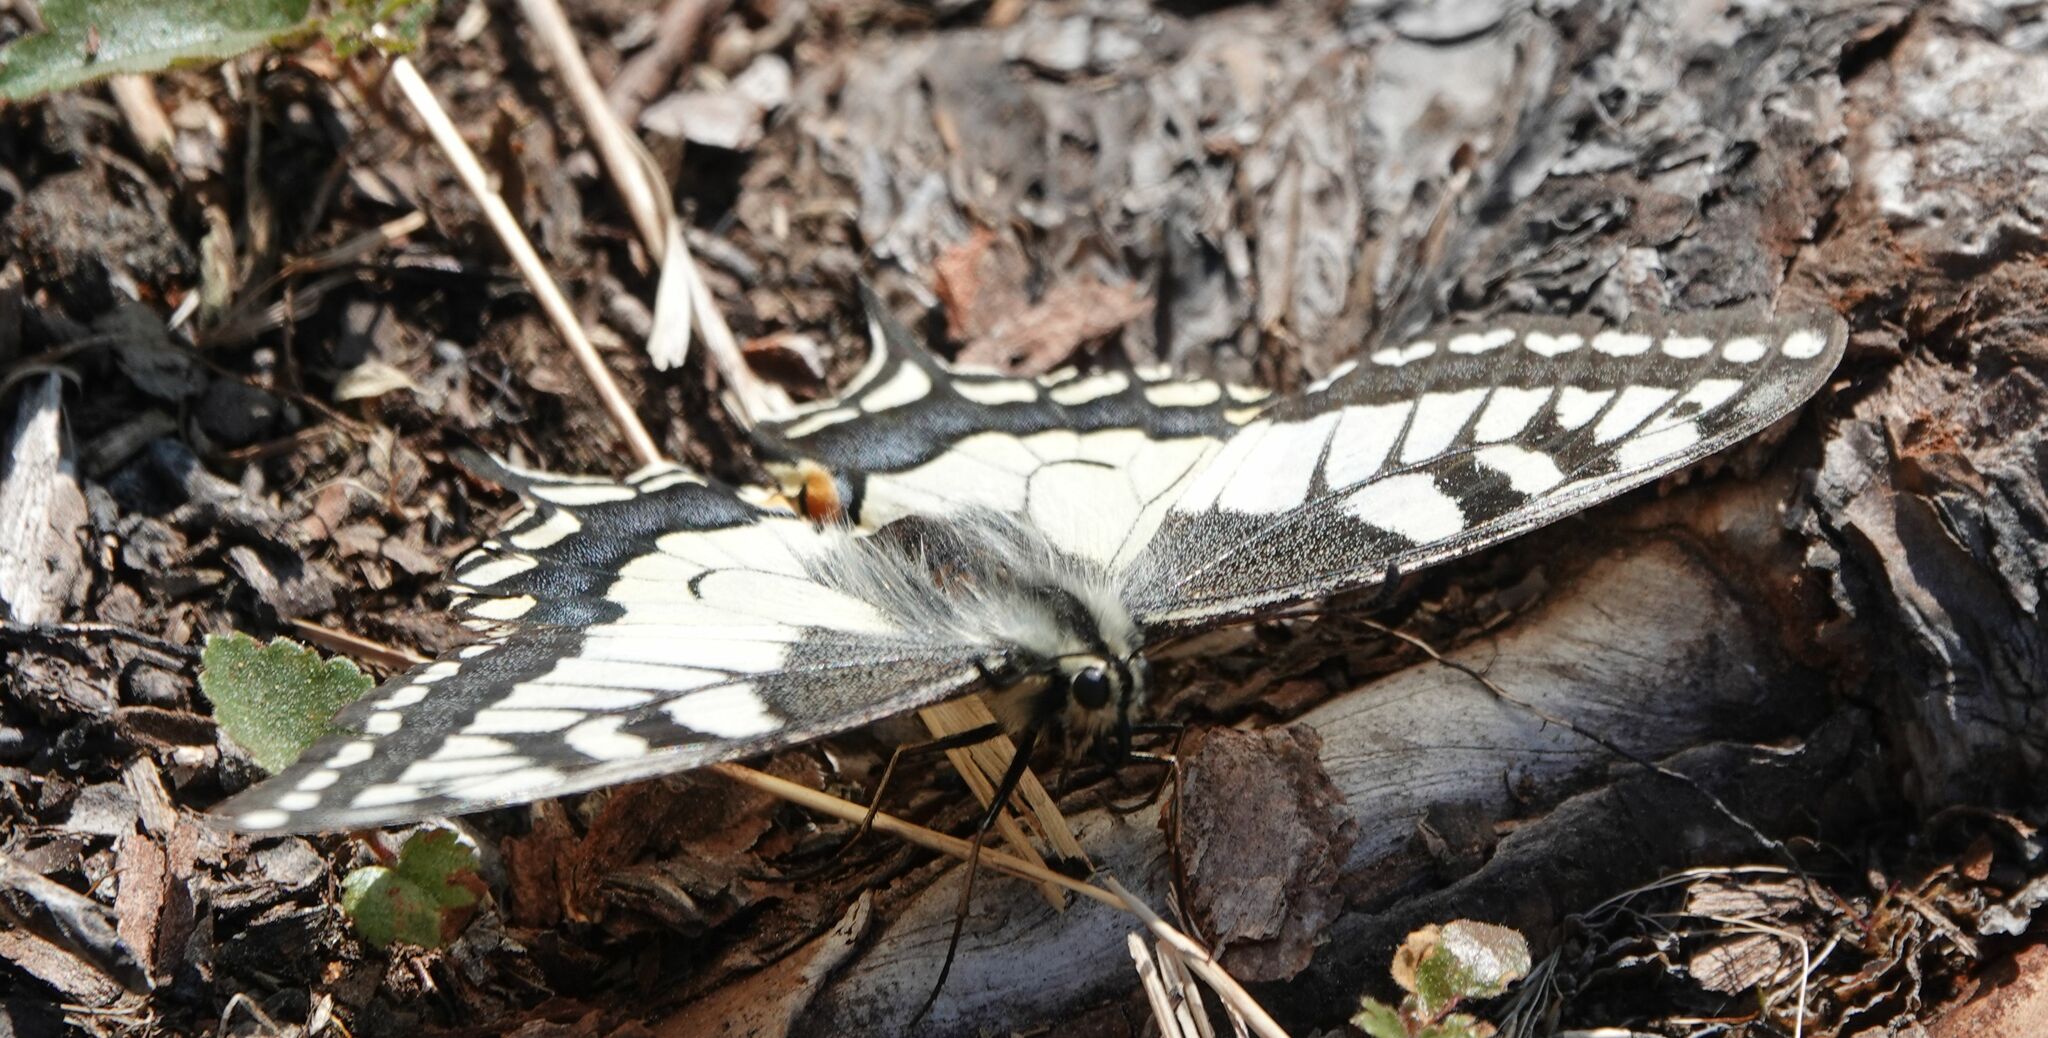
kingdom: Animalia
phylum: Arthropoda
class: Insecta
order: Lepidoptera
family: Papilionidae
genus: Papilio
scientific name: Papilio machaon
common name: Swallowtail
